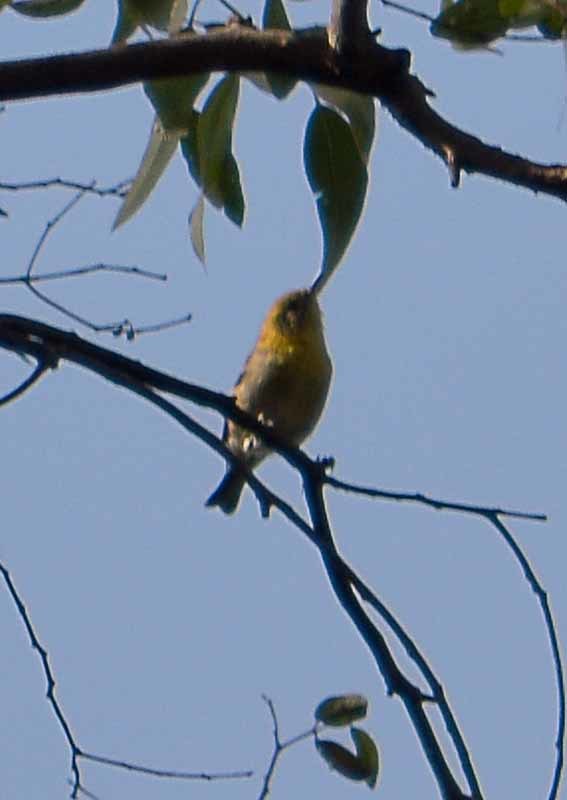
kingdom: Animalia
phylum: Chordata
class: Aves
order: Passeriformes
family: Peucedramidae
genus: Peucedramus
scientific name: Peucedramus taeniatus
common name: Olive warbler
